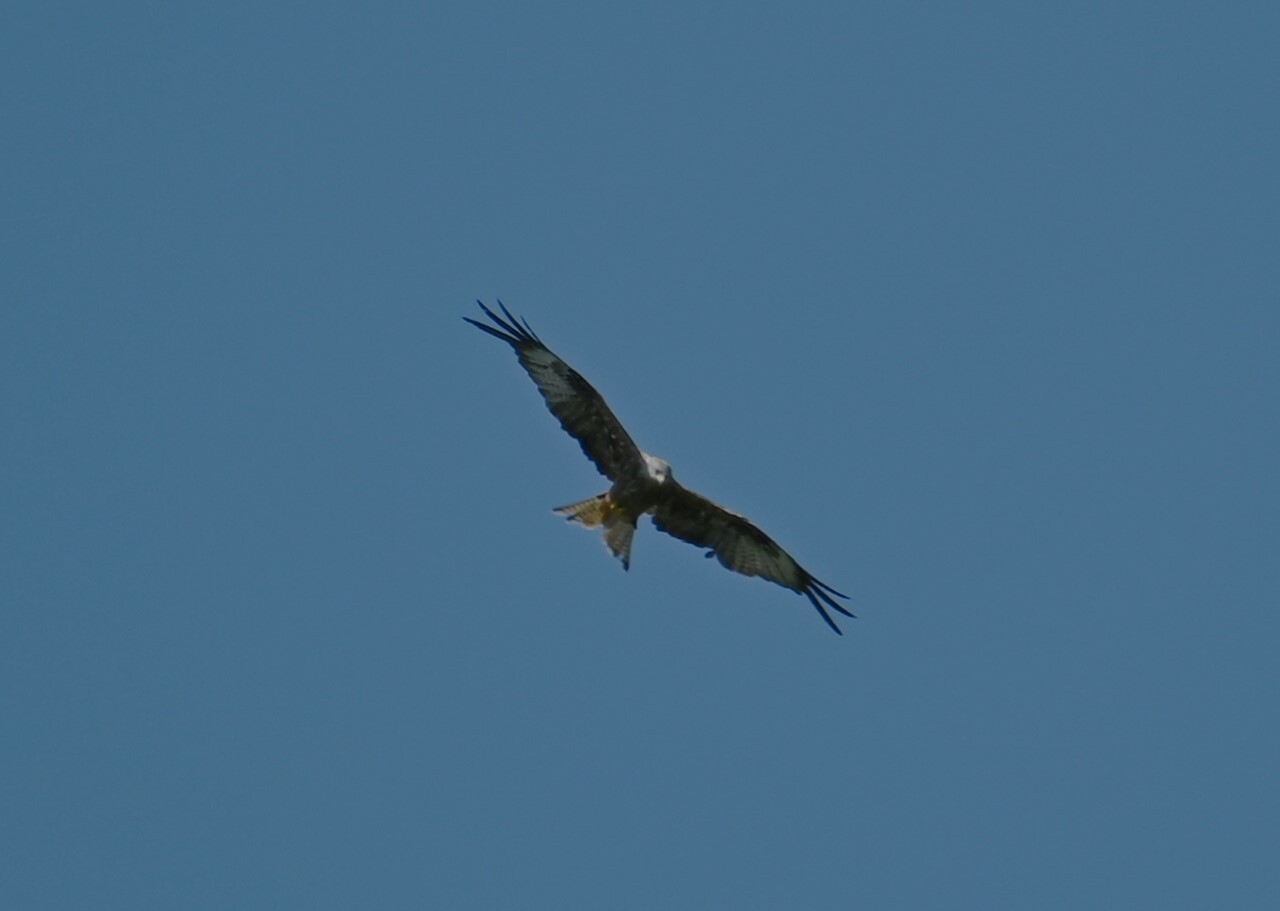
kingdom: Animalia
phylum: Chordata
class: Aves
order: Accipitriformes
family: Accipitridae
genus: Milvus
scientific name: Milvus milvus
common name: Red kite
